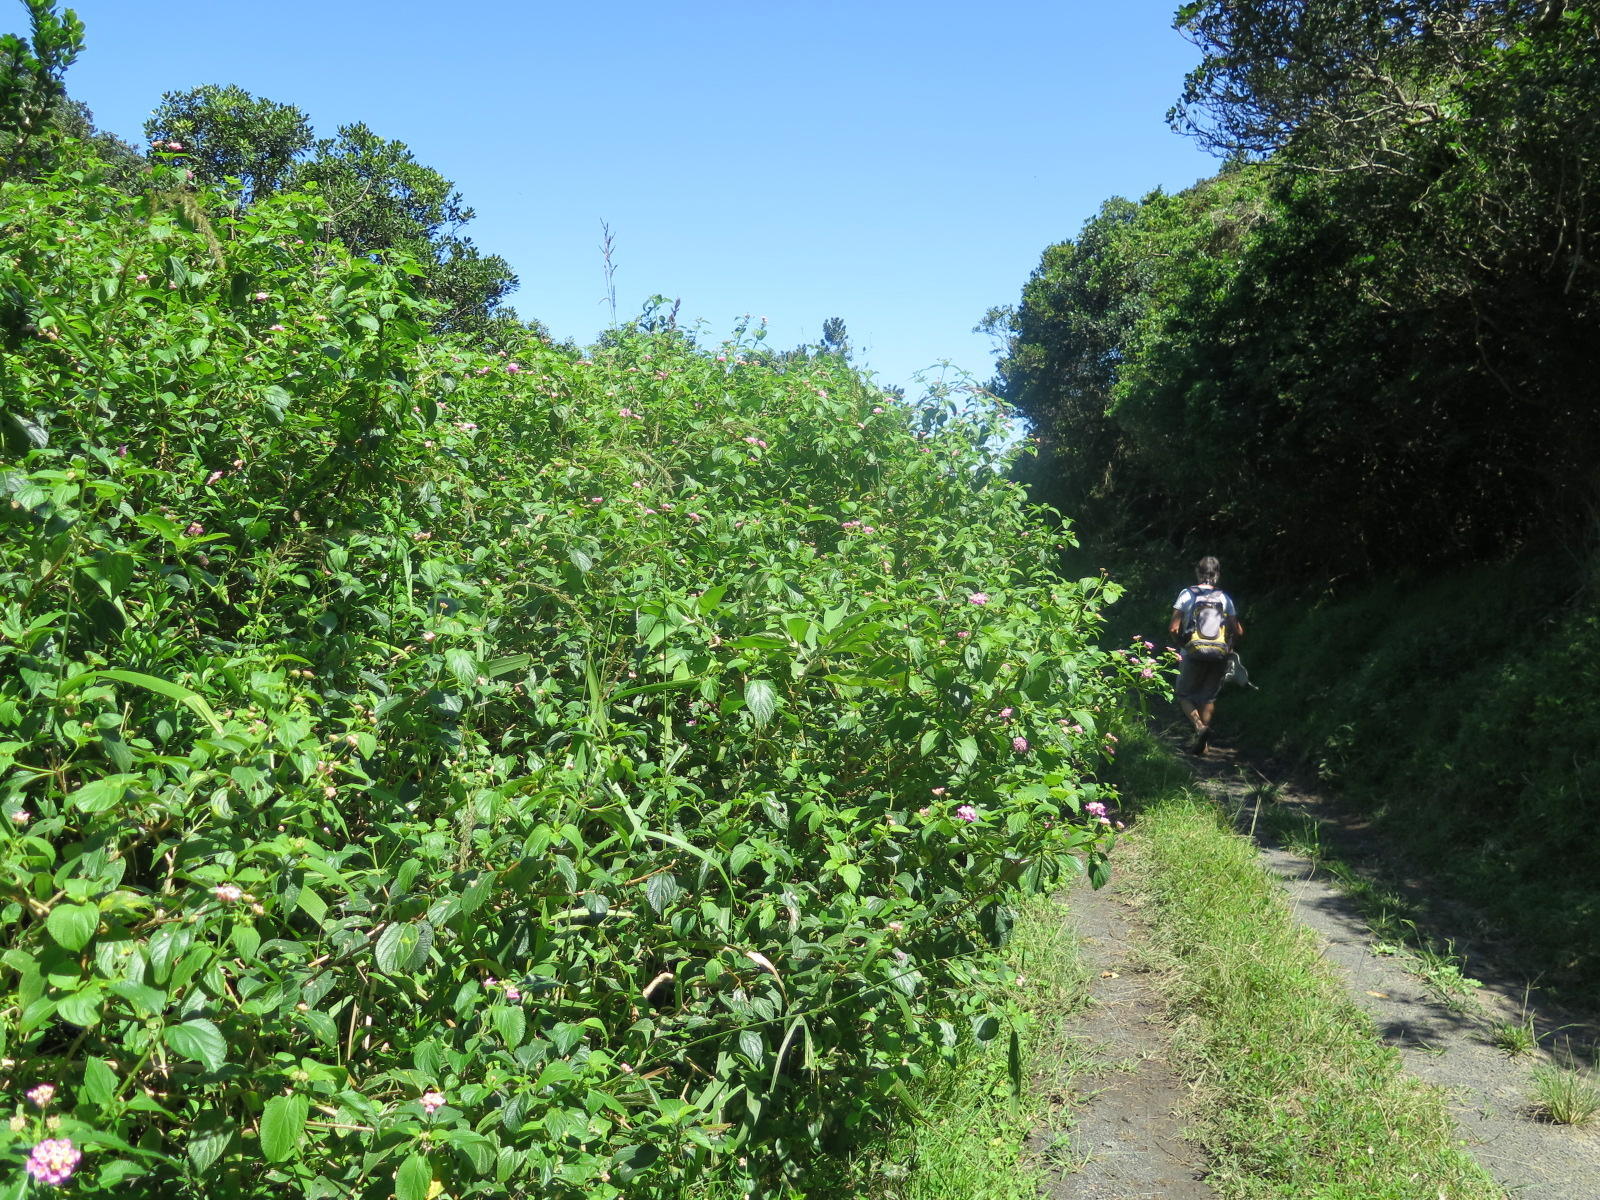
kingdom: Plantae
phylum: Tracheophyta
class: Magnoliopsida
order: Lamiales
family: Verbenaceae
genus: Lantana
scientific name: Lantana camara
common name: Lantana
